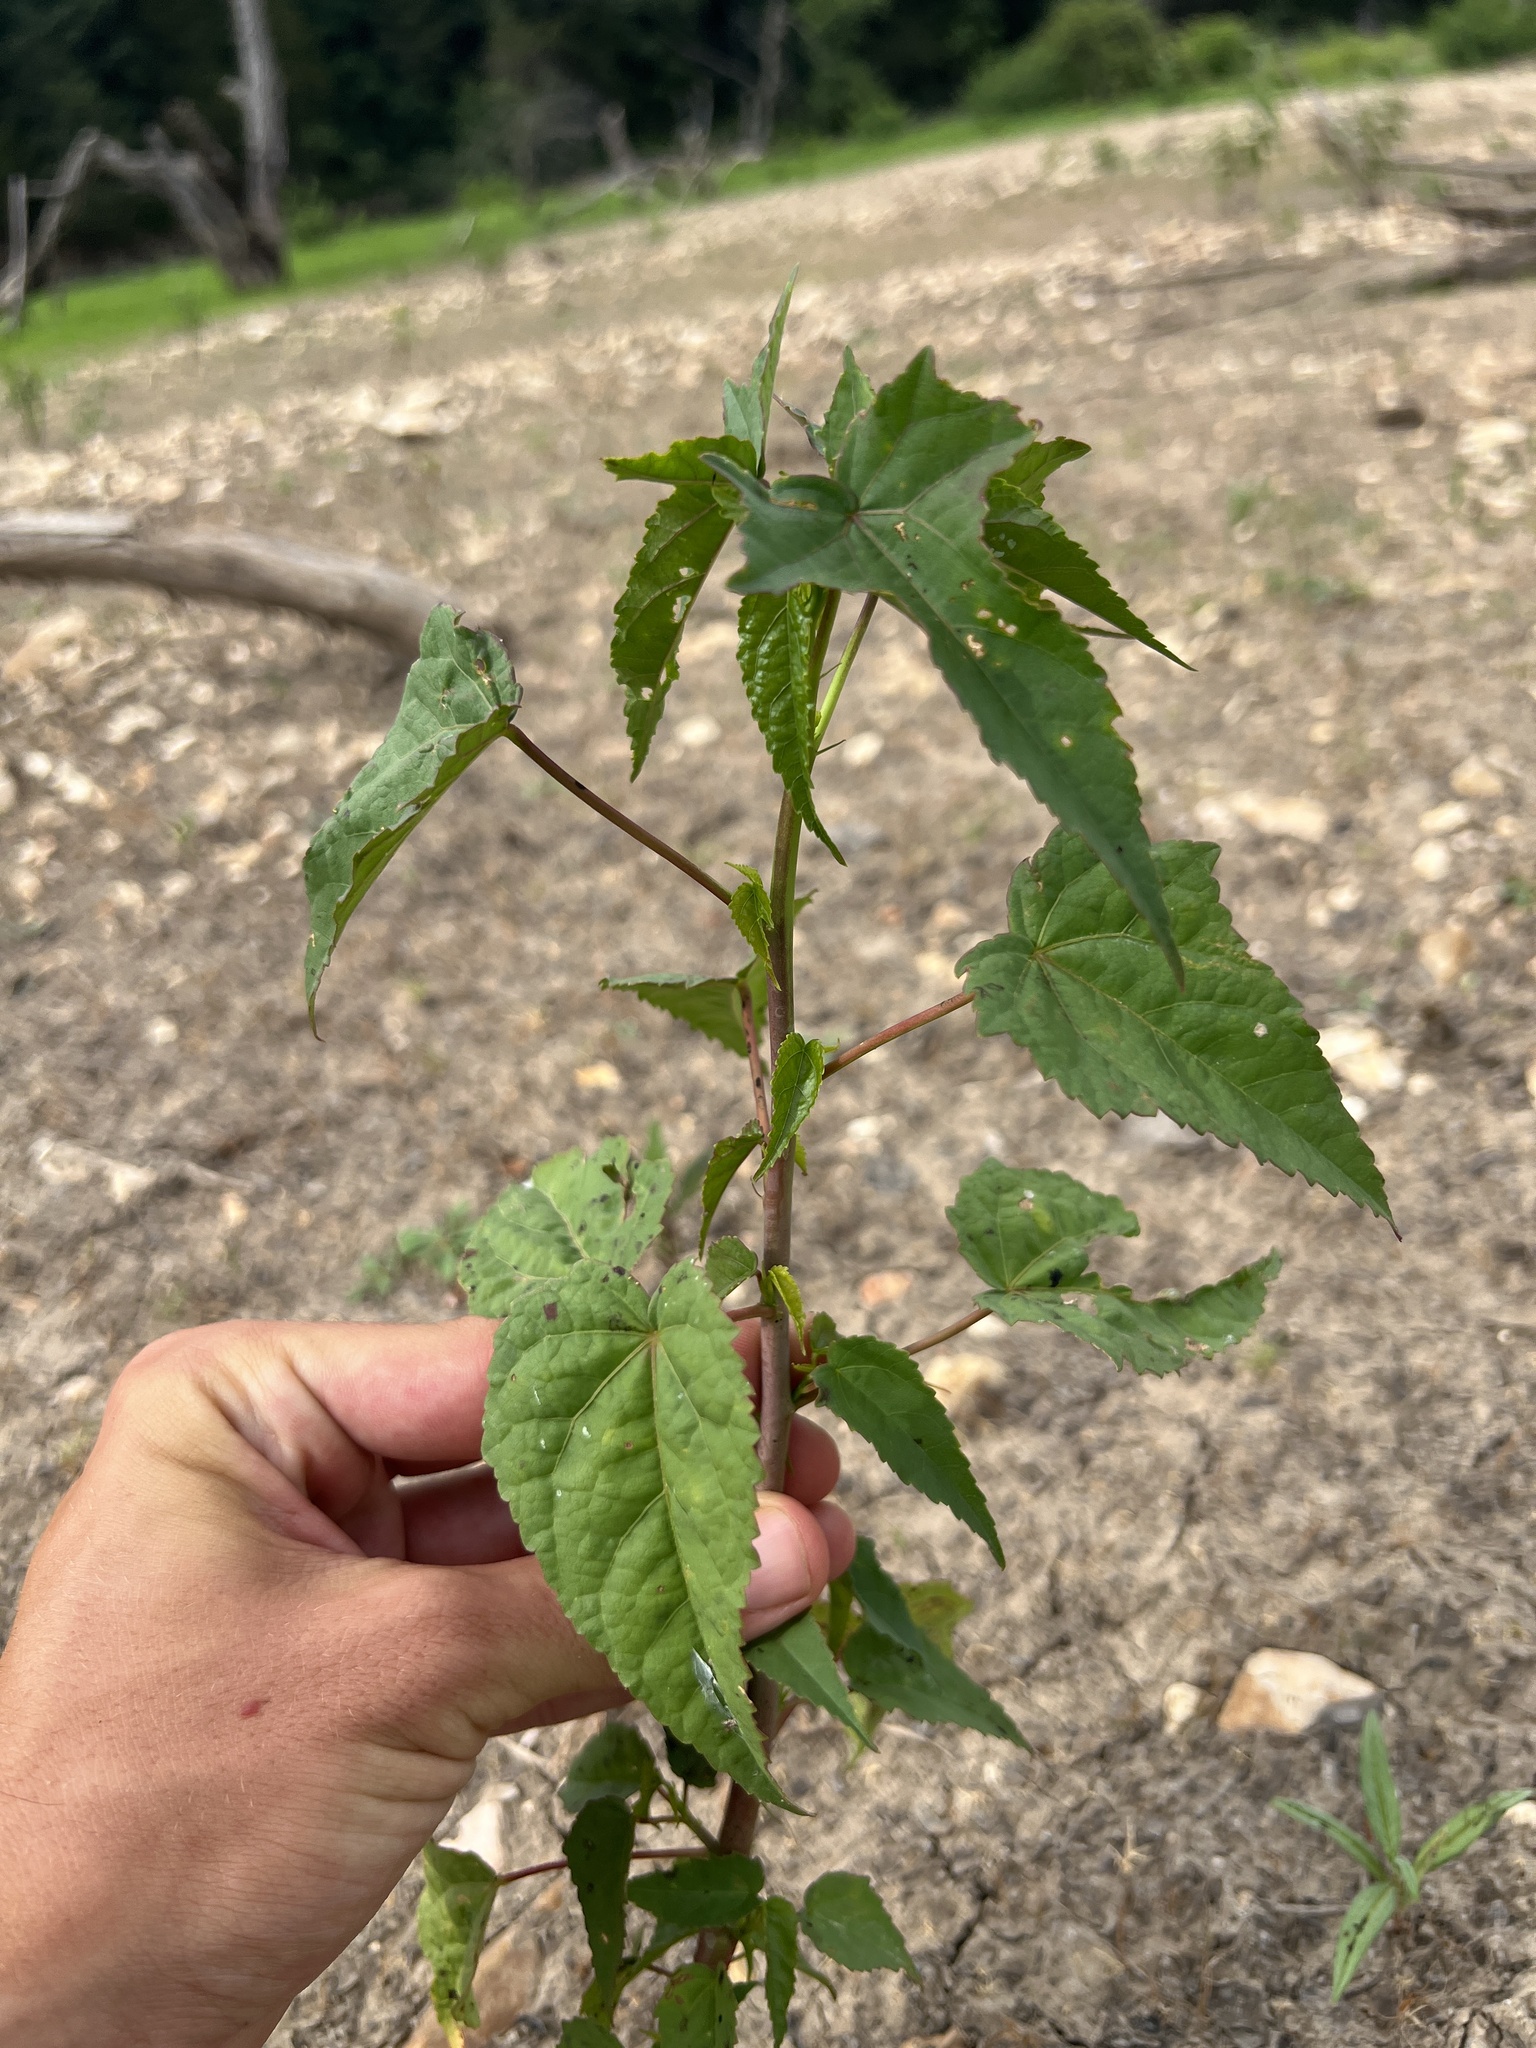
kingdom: Plantae
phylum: Tracheophyta
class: Magnoliopsida
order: Malvales
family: Malvaceae
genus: Hibiscus
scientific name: Hibiscus laevis
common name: Scarlet rose-mallow
